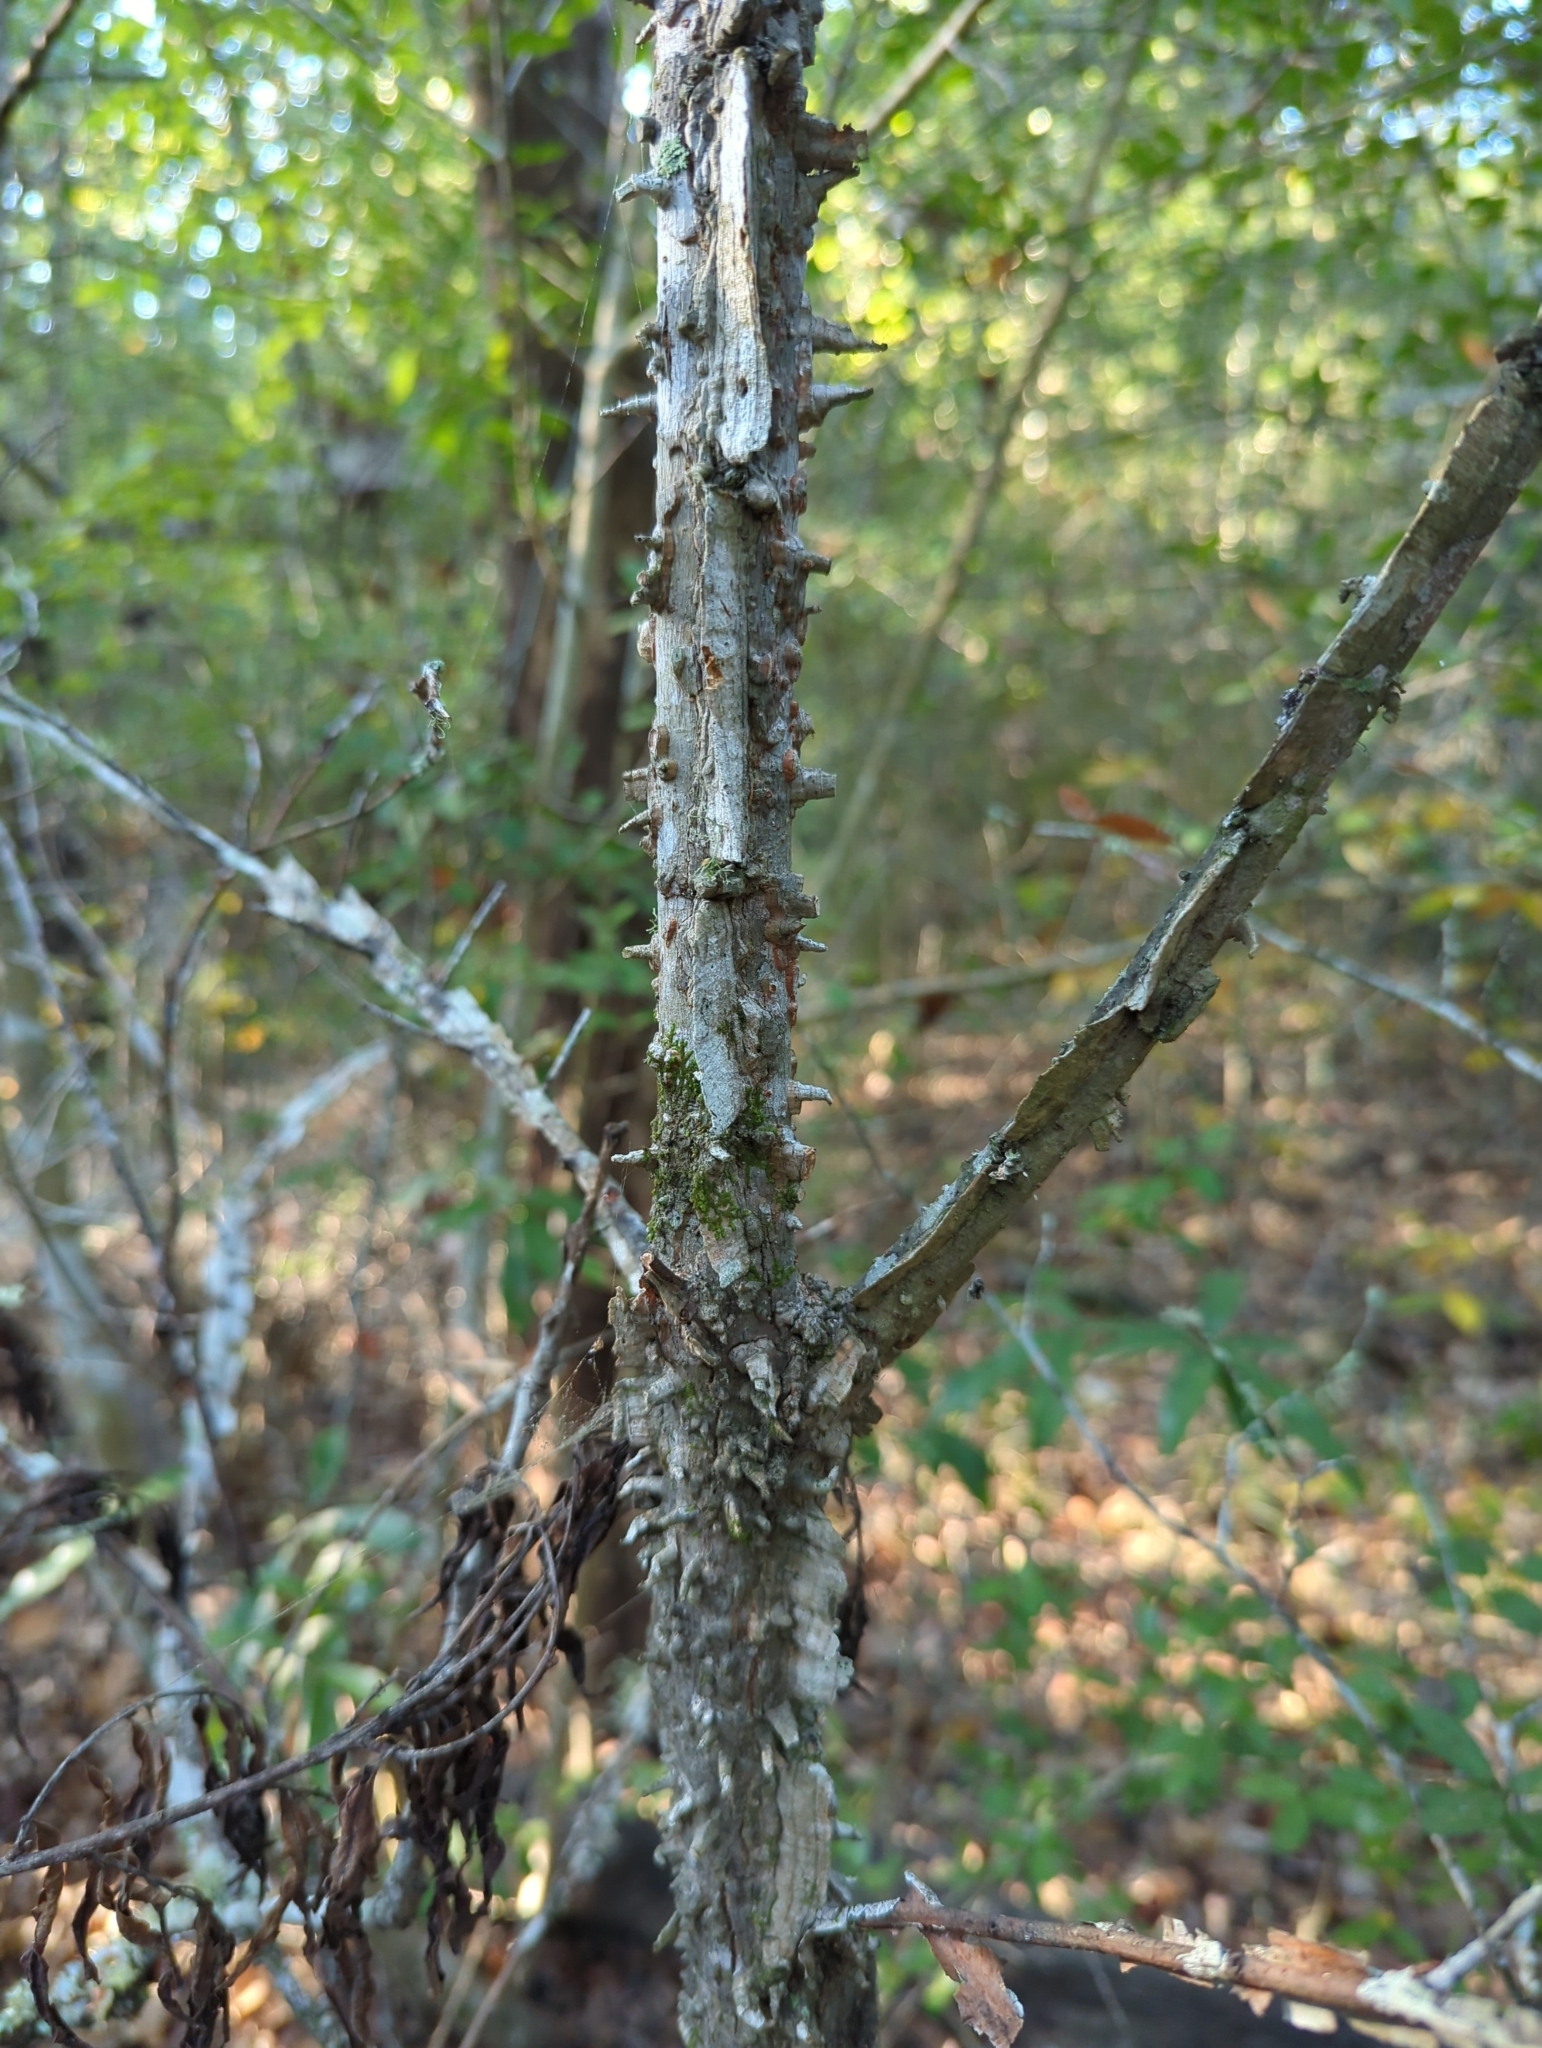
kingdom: Plantae
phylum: Tracheophyta
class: Magnoliopsida
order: Rosales
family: Ulmaceae
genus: Ulmus
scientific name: Ulmus alata
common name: Winged elm
